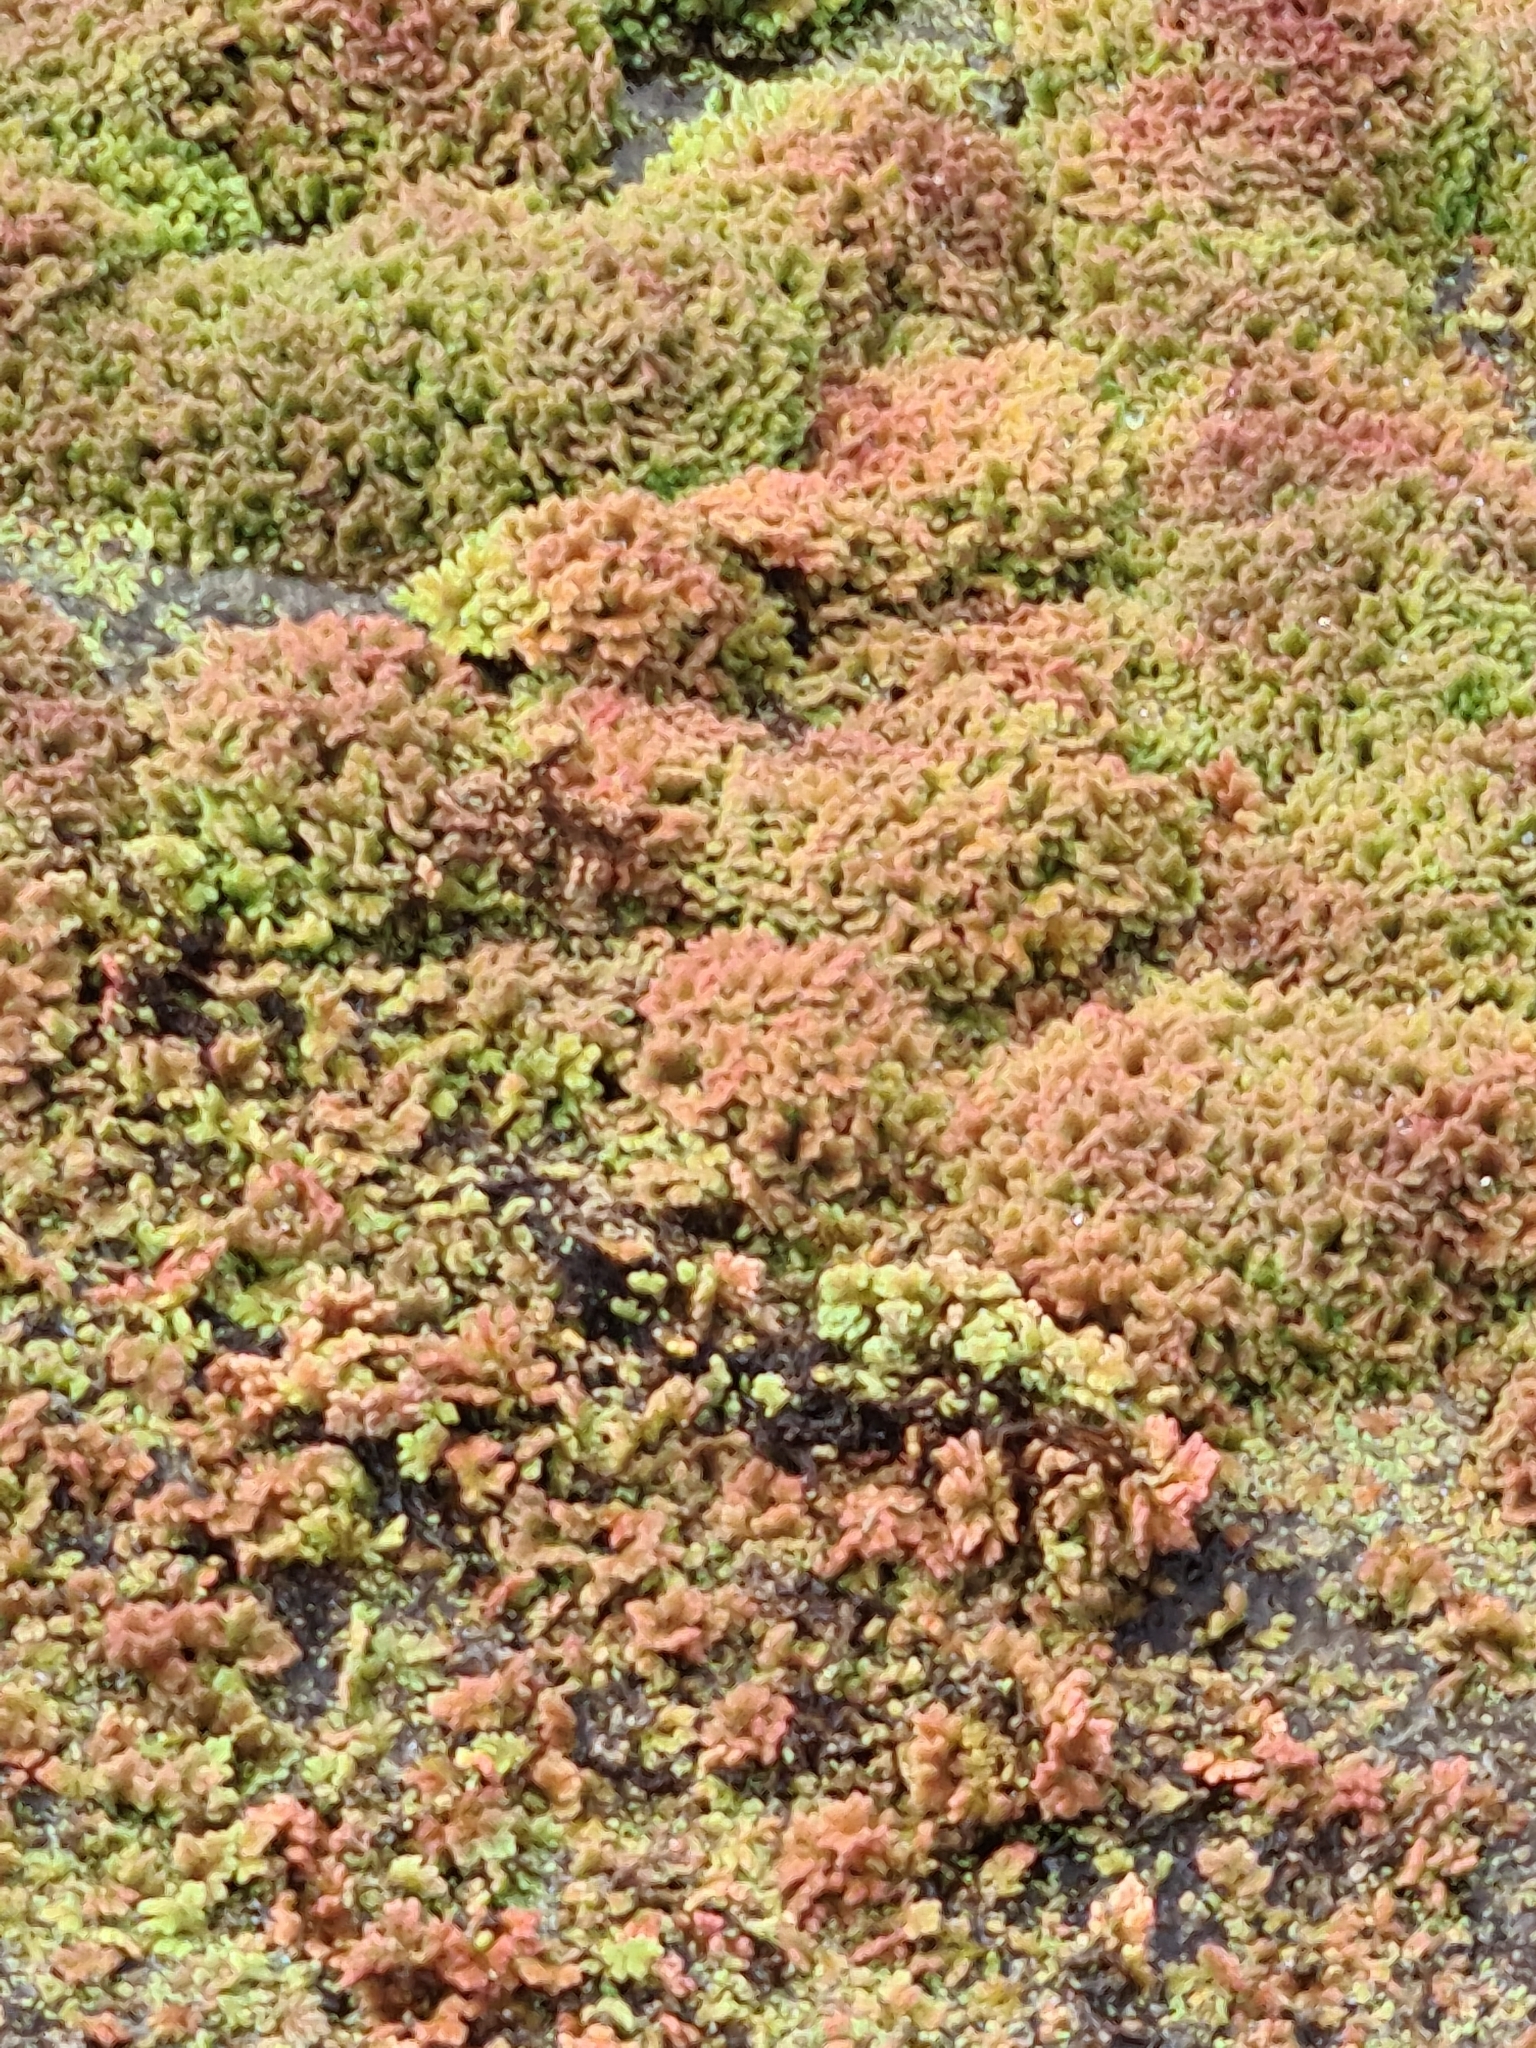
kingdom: Plantae
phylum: Tracheophyta
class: Polypodiopsida
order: Salviniales
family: Salviniaceae
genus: Azolla
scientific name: Azolla rubra
